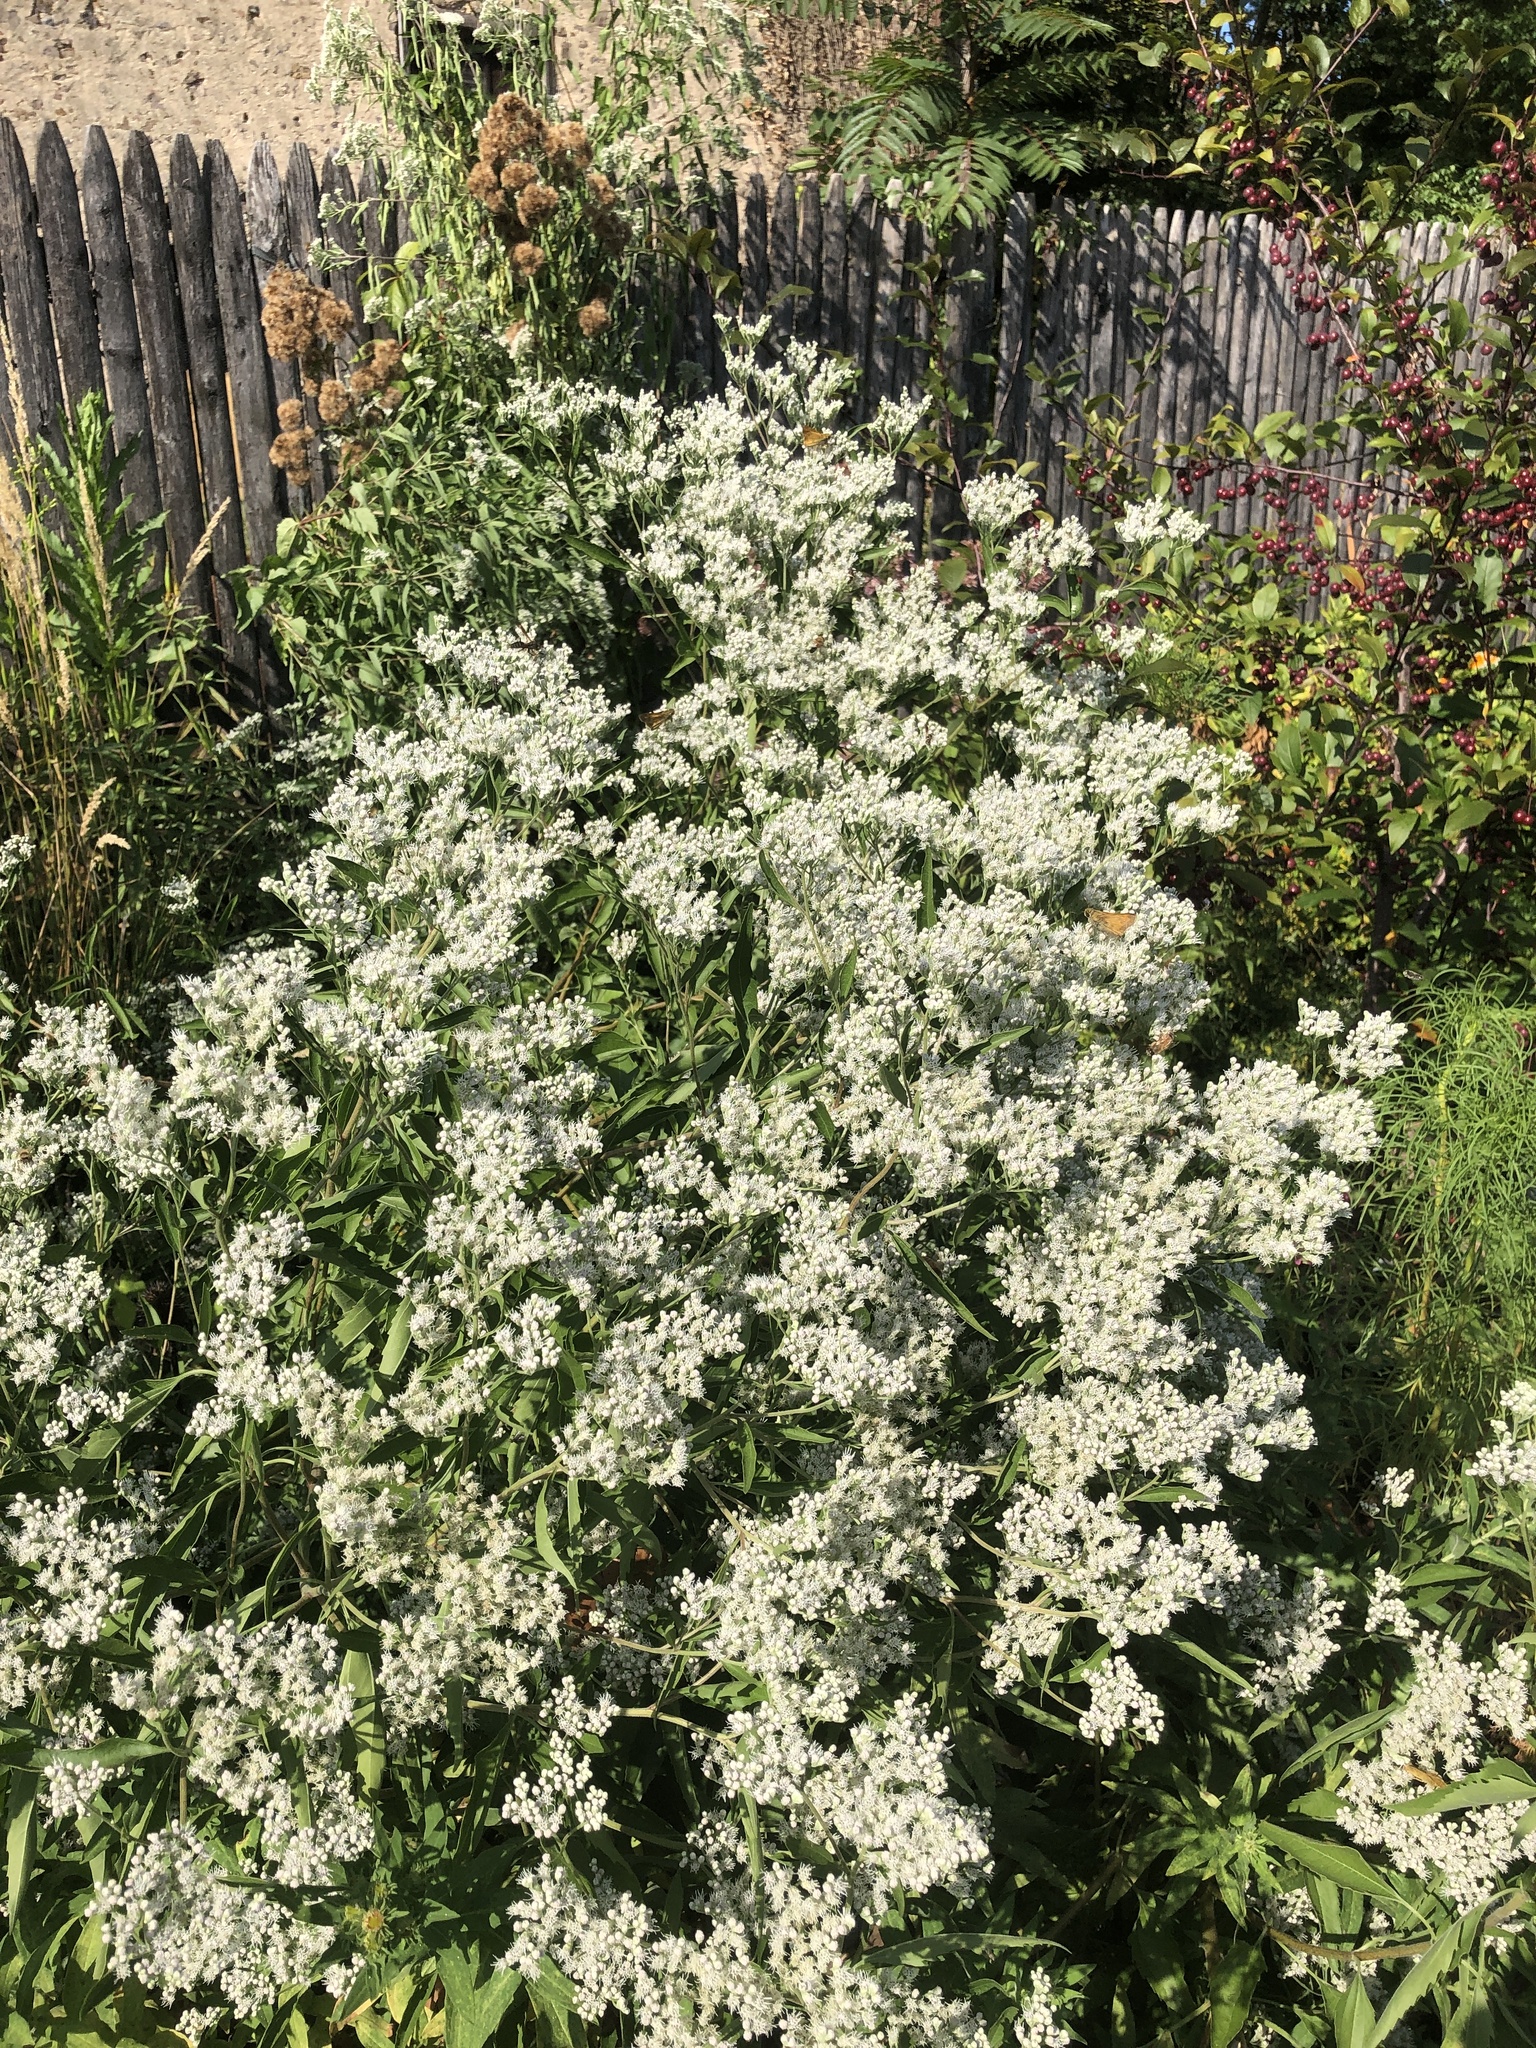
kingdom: Plantae
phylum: Tracheophyta
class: Magnoliopsida
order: Asterales
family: Asteraceae
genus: Eupatorium
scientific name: Eupatorium serotinum
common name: Late boneset
